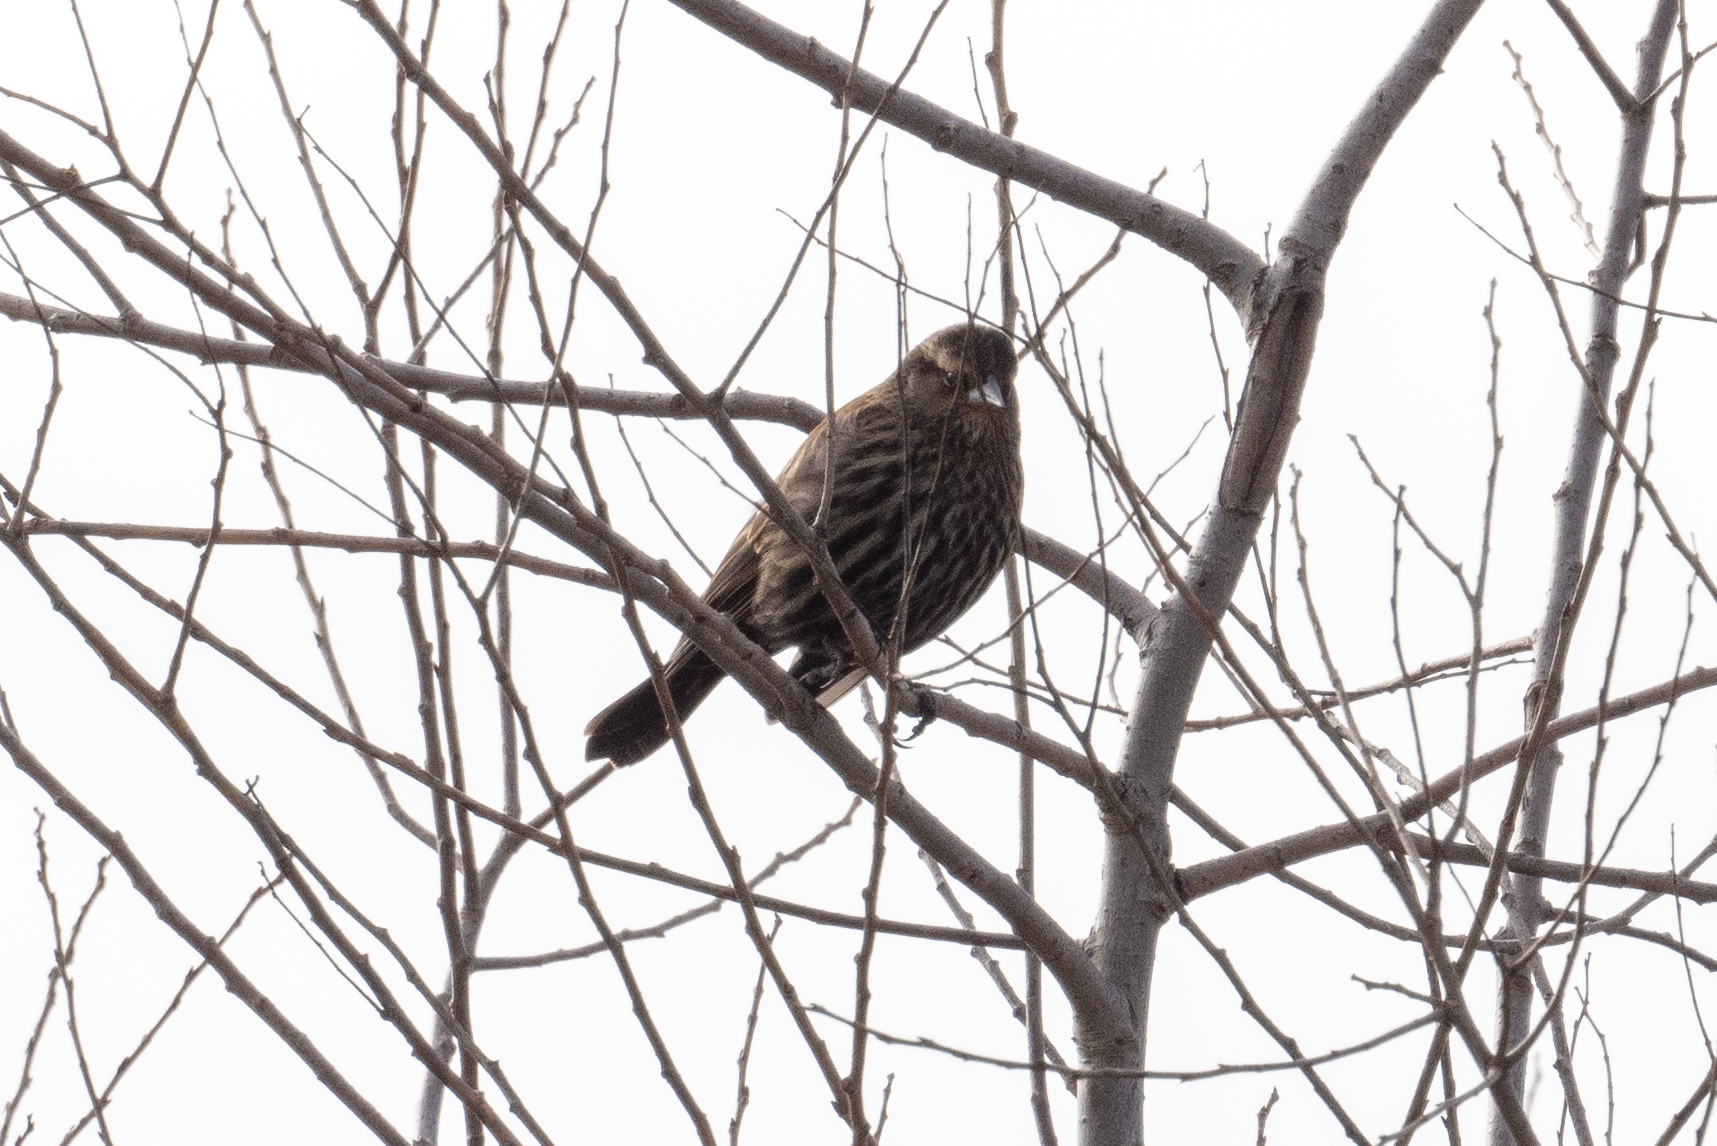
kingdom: Animalia
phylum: Chordata
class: Aves
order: Passeriformes
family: Icteridae
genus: Agelaius
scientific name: Agelaius phoeniceus
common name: Red-winged blackbird
